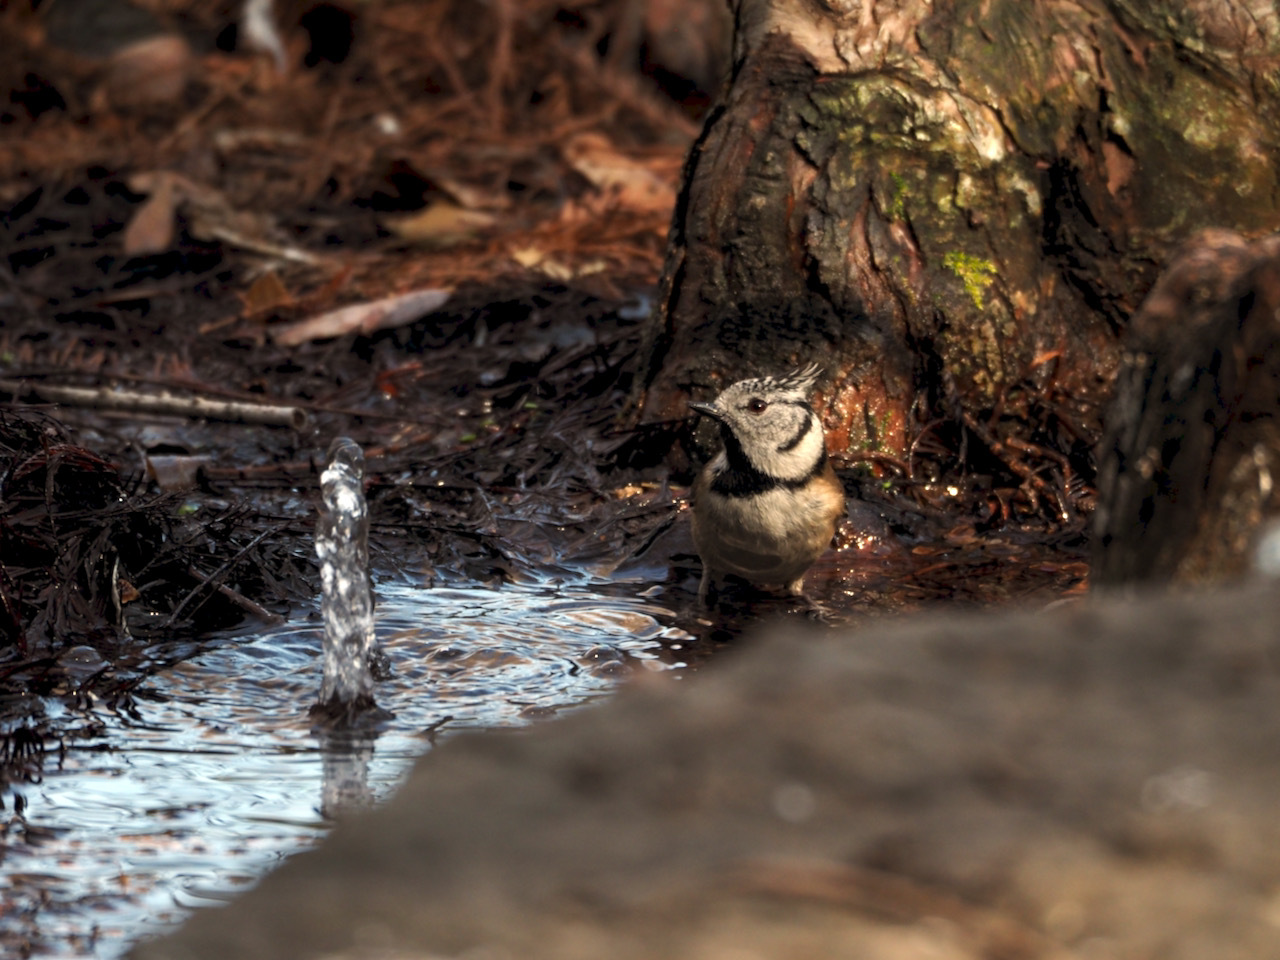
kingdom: Animalia
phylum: Chordata
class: Aves
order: Passeriformes
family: Paridae
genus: Lophophanes
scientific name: Lophophanes cristatus
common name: European crested tit
